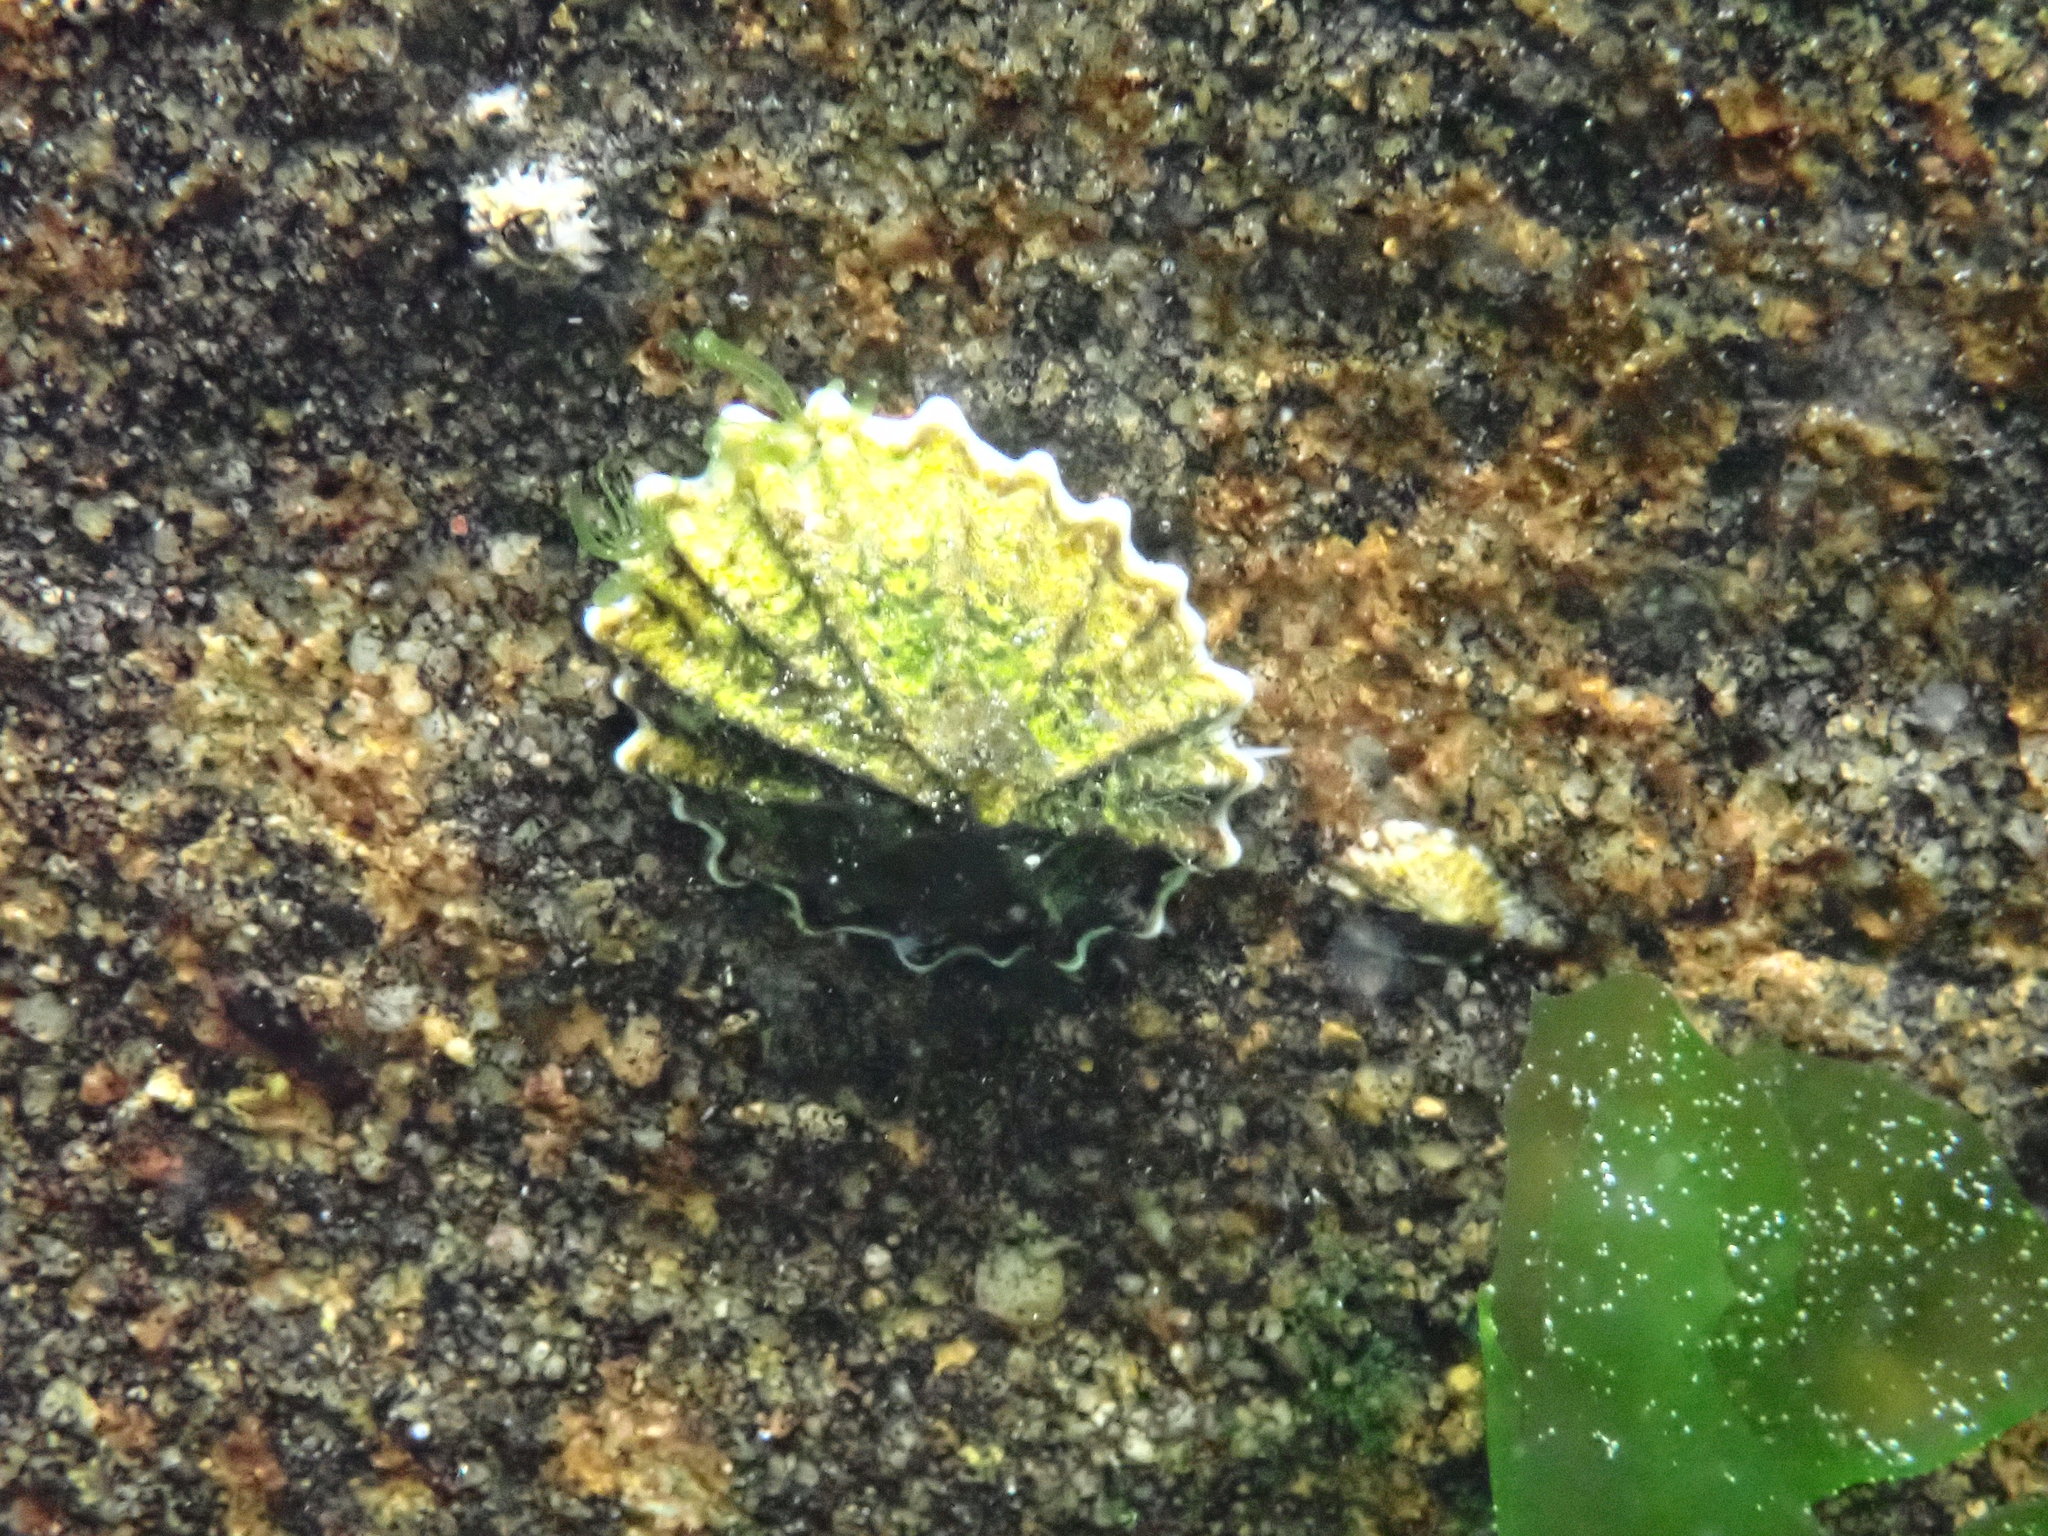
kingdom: Animalia
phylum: Mollusca
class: Gastropoda
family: Lottiidae
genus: Patelloida
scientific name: Patelloida alticostata
